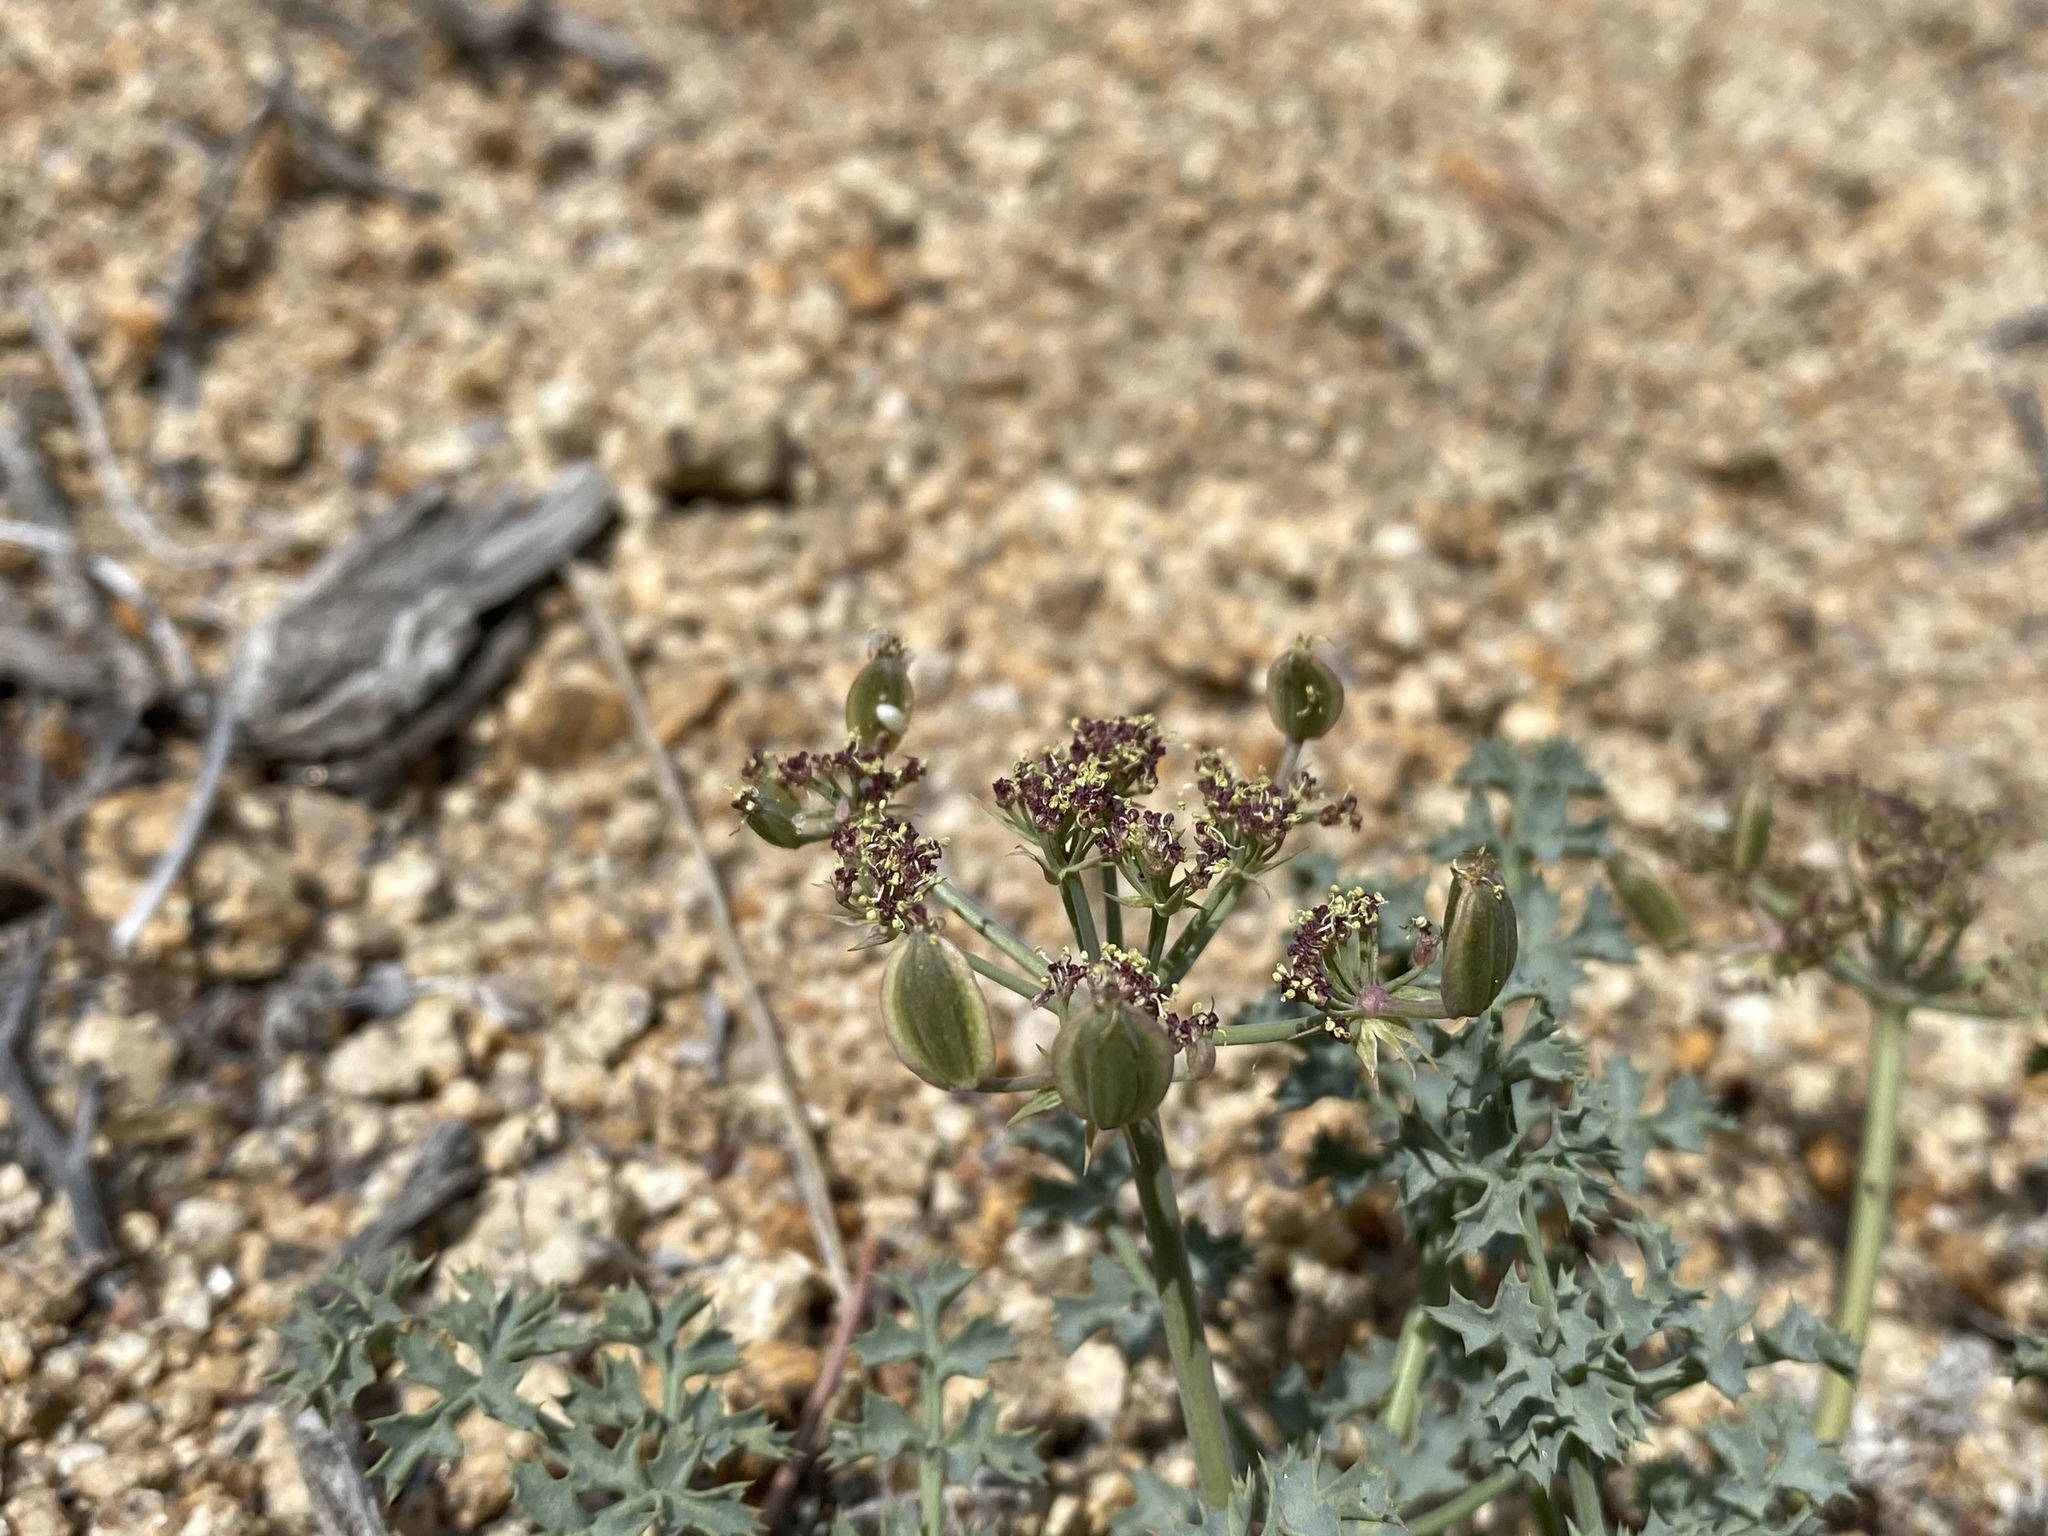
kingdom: Plantae
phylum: Tracheophyta
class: Magnoliopsida
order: Apiales
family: Apiaceae
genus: Lomatium
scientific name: Lomatium rigidum
